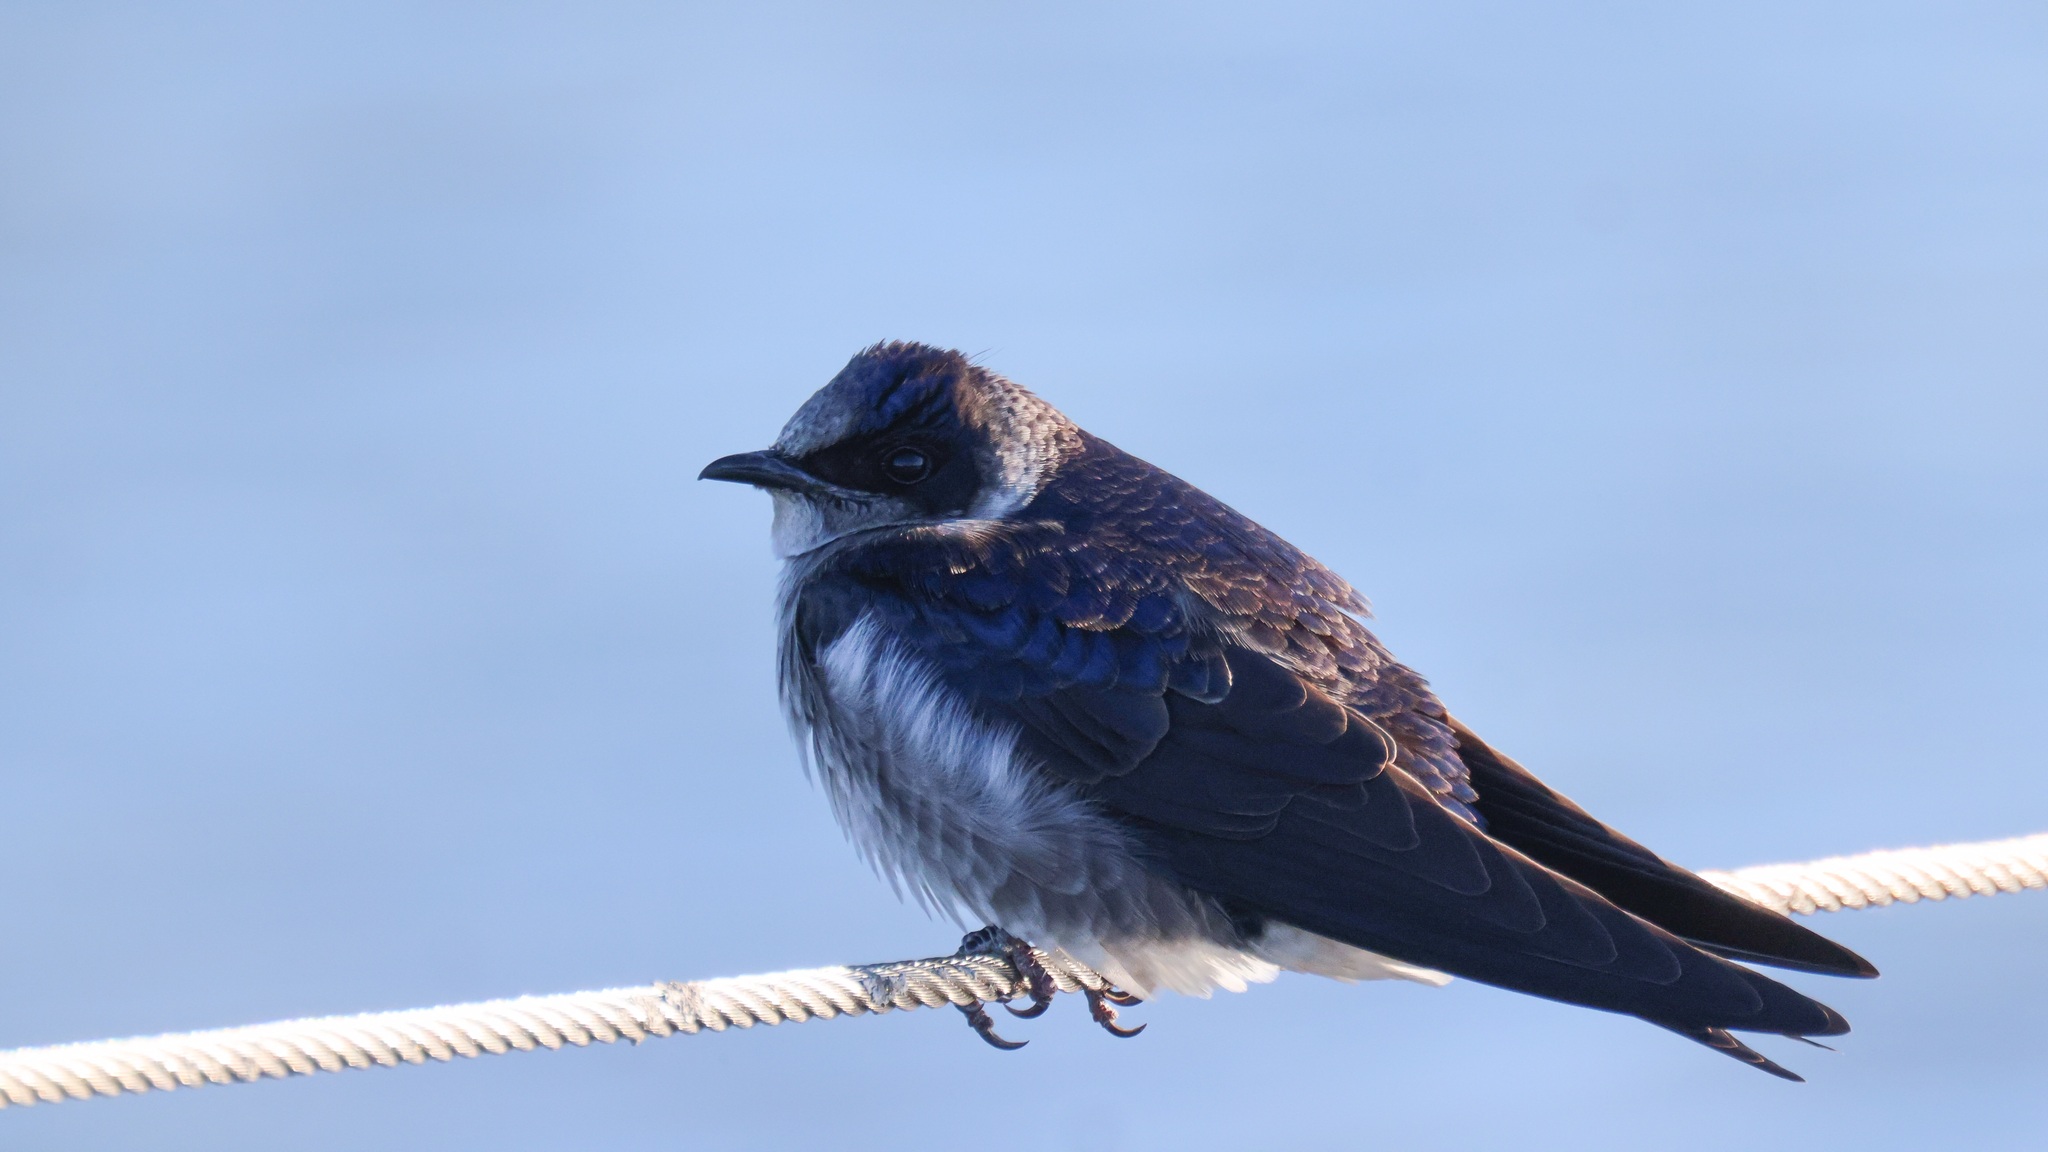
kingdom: Animalia
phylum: Chordata
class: Aves
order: Passeriformes
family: Hirundinidae
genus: Progne
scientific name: Progne subis
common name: Purple martin
